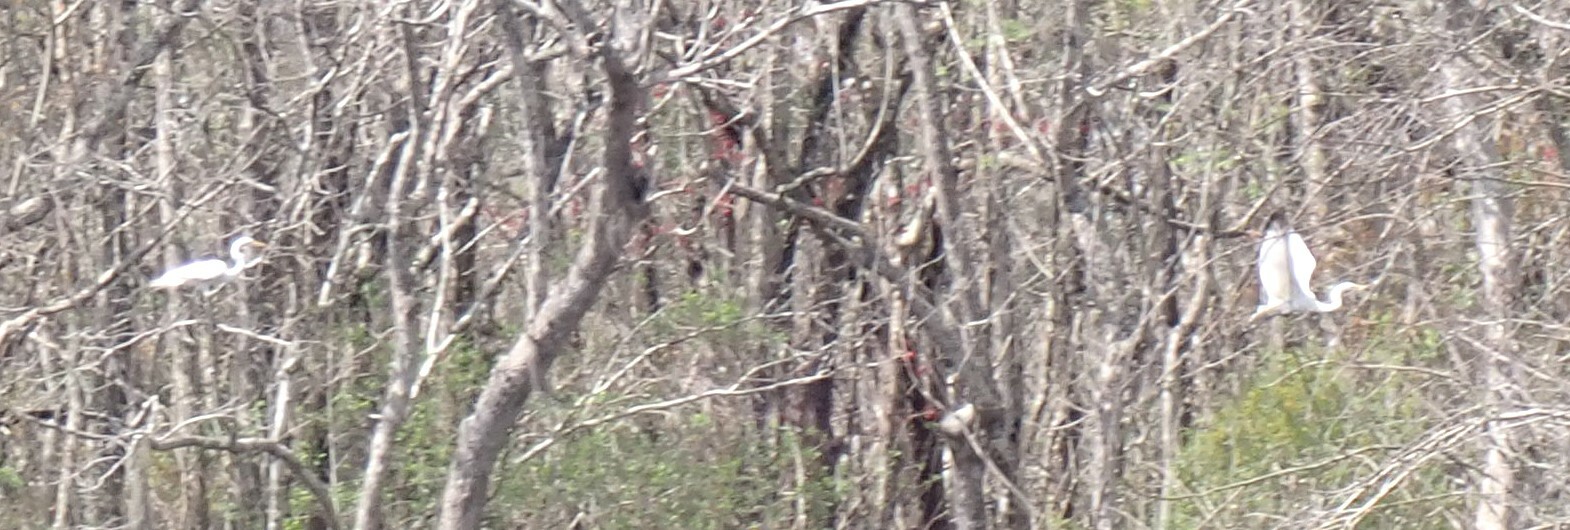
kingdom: Animalia
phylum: Chordata
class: Aves
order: Pelecaniformes
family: Ardeidae
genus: Ardea
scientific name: Ardea alba
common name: Great egret
